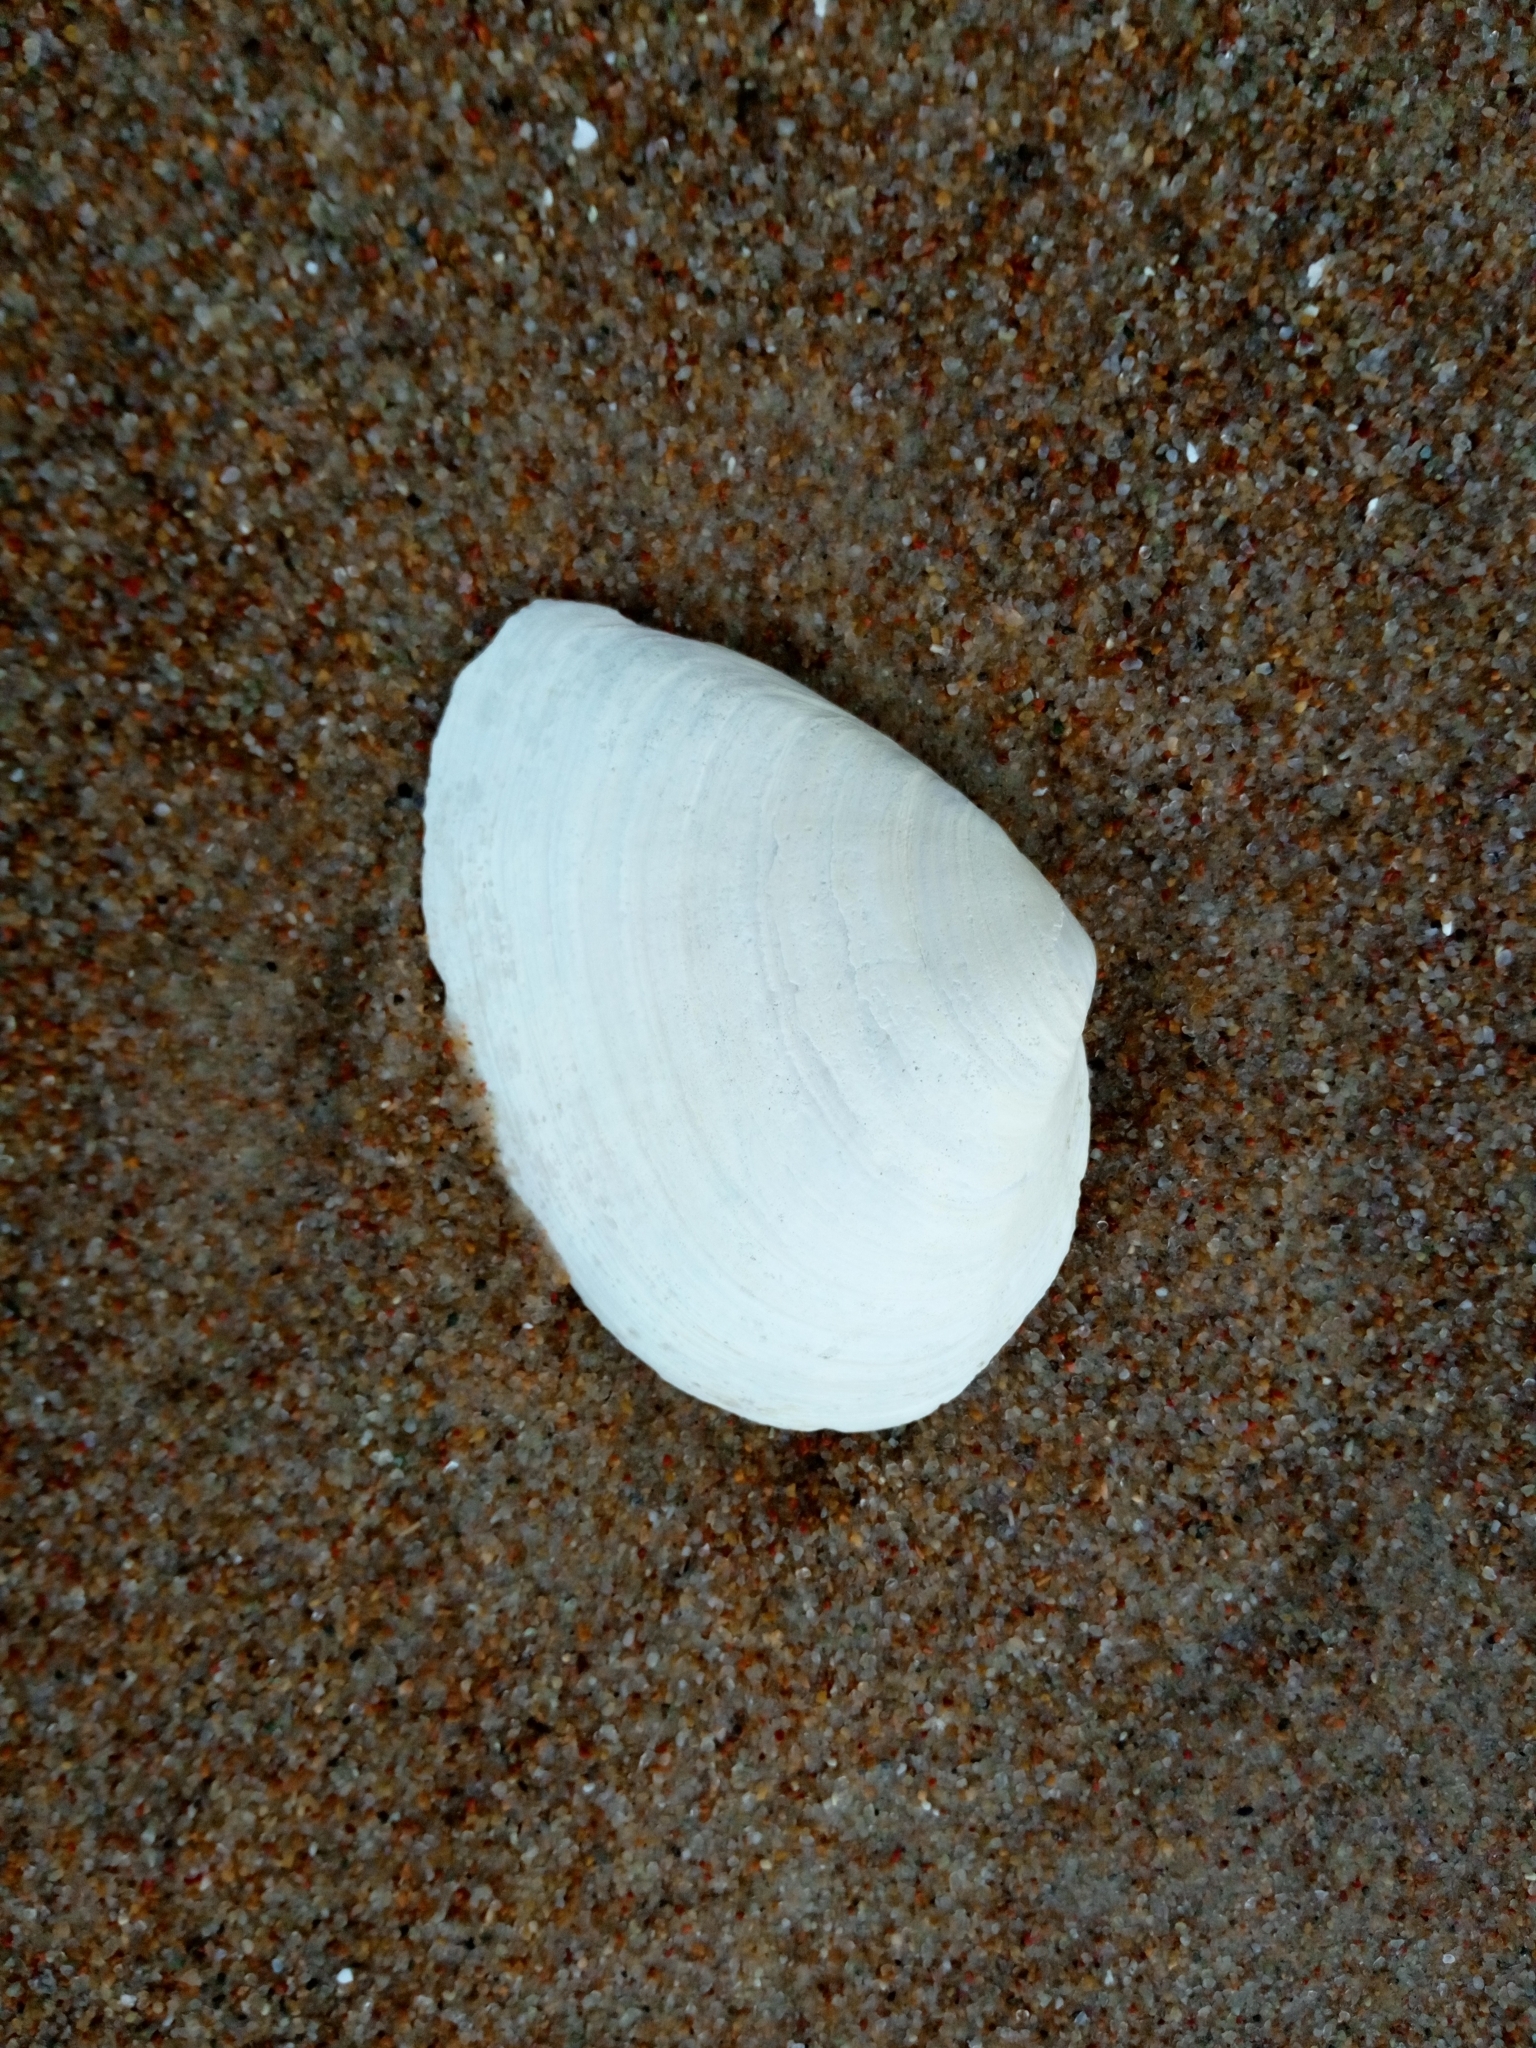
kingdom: Animalia
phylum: Mollusca
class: Bivalvia
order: Myida
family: Myidae
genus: Mya
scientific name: Mya arenaria
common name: Soft-shelled clam
